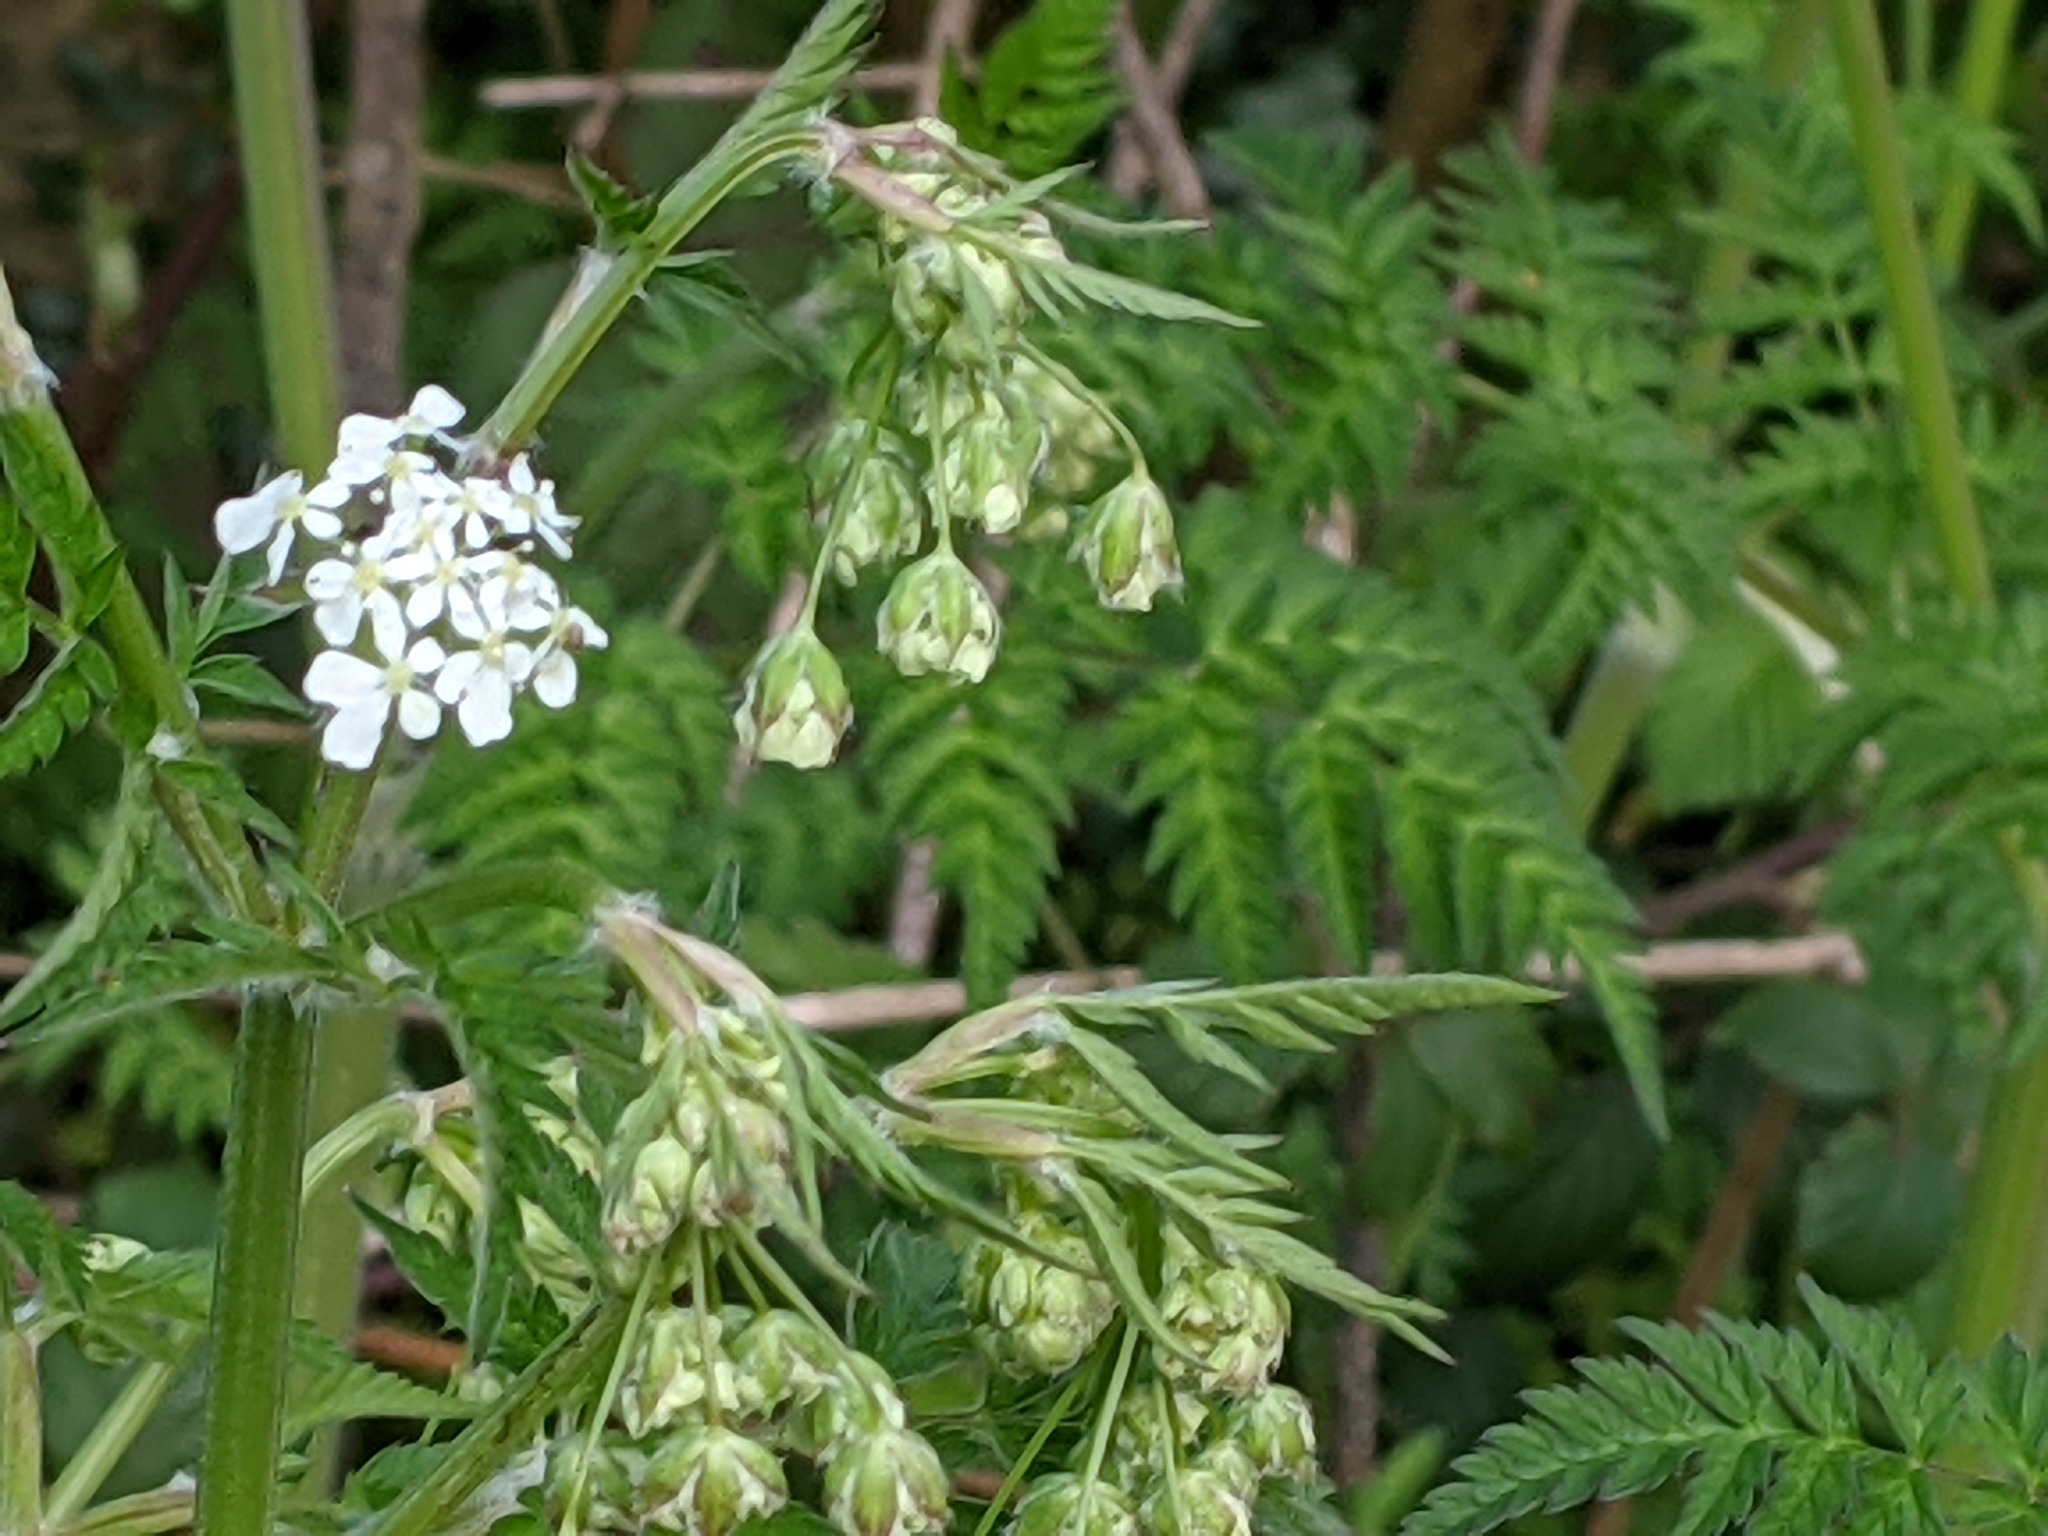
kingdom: Plantae
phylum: Tracheophyta
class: Magnoliopsida
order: Apiales
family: Apiaceae
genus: Anthriscus
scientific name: Anthriscus sylvestris
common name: Cow parsley
